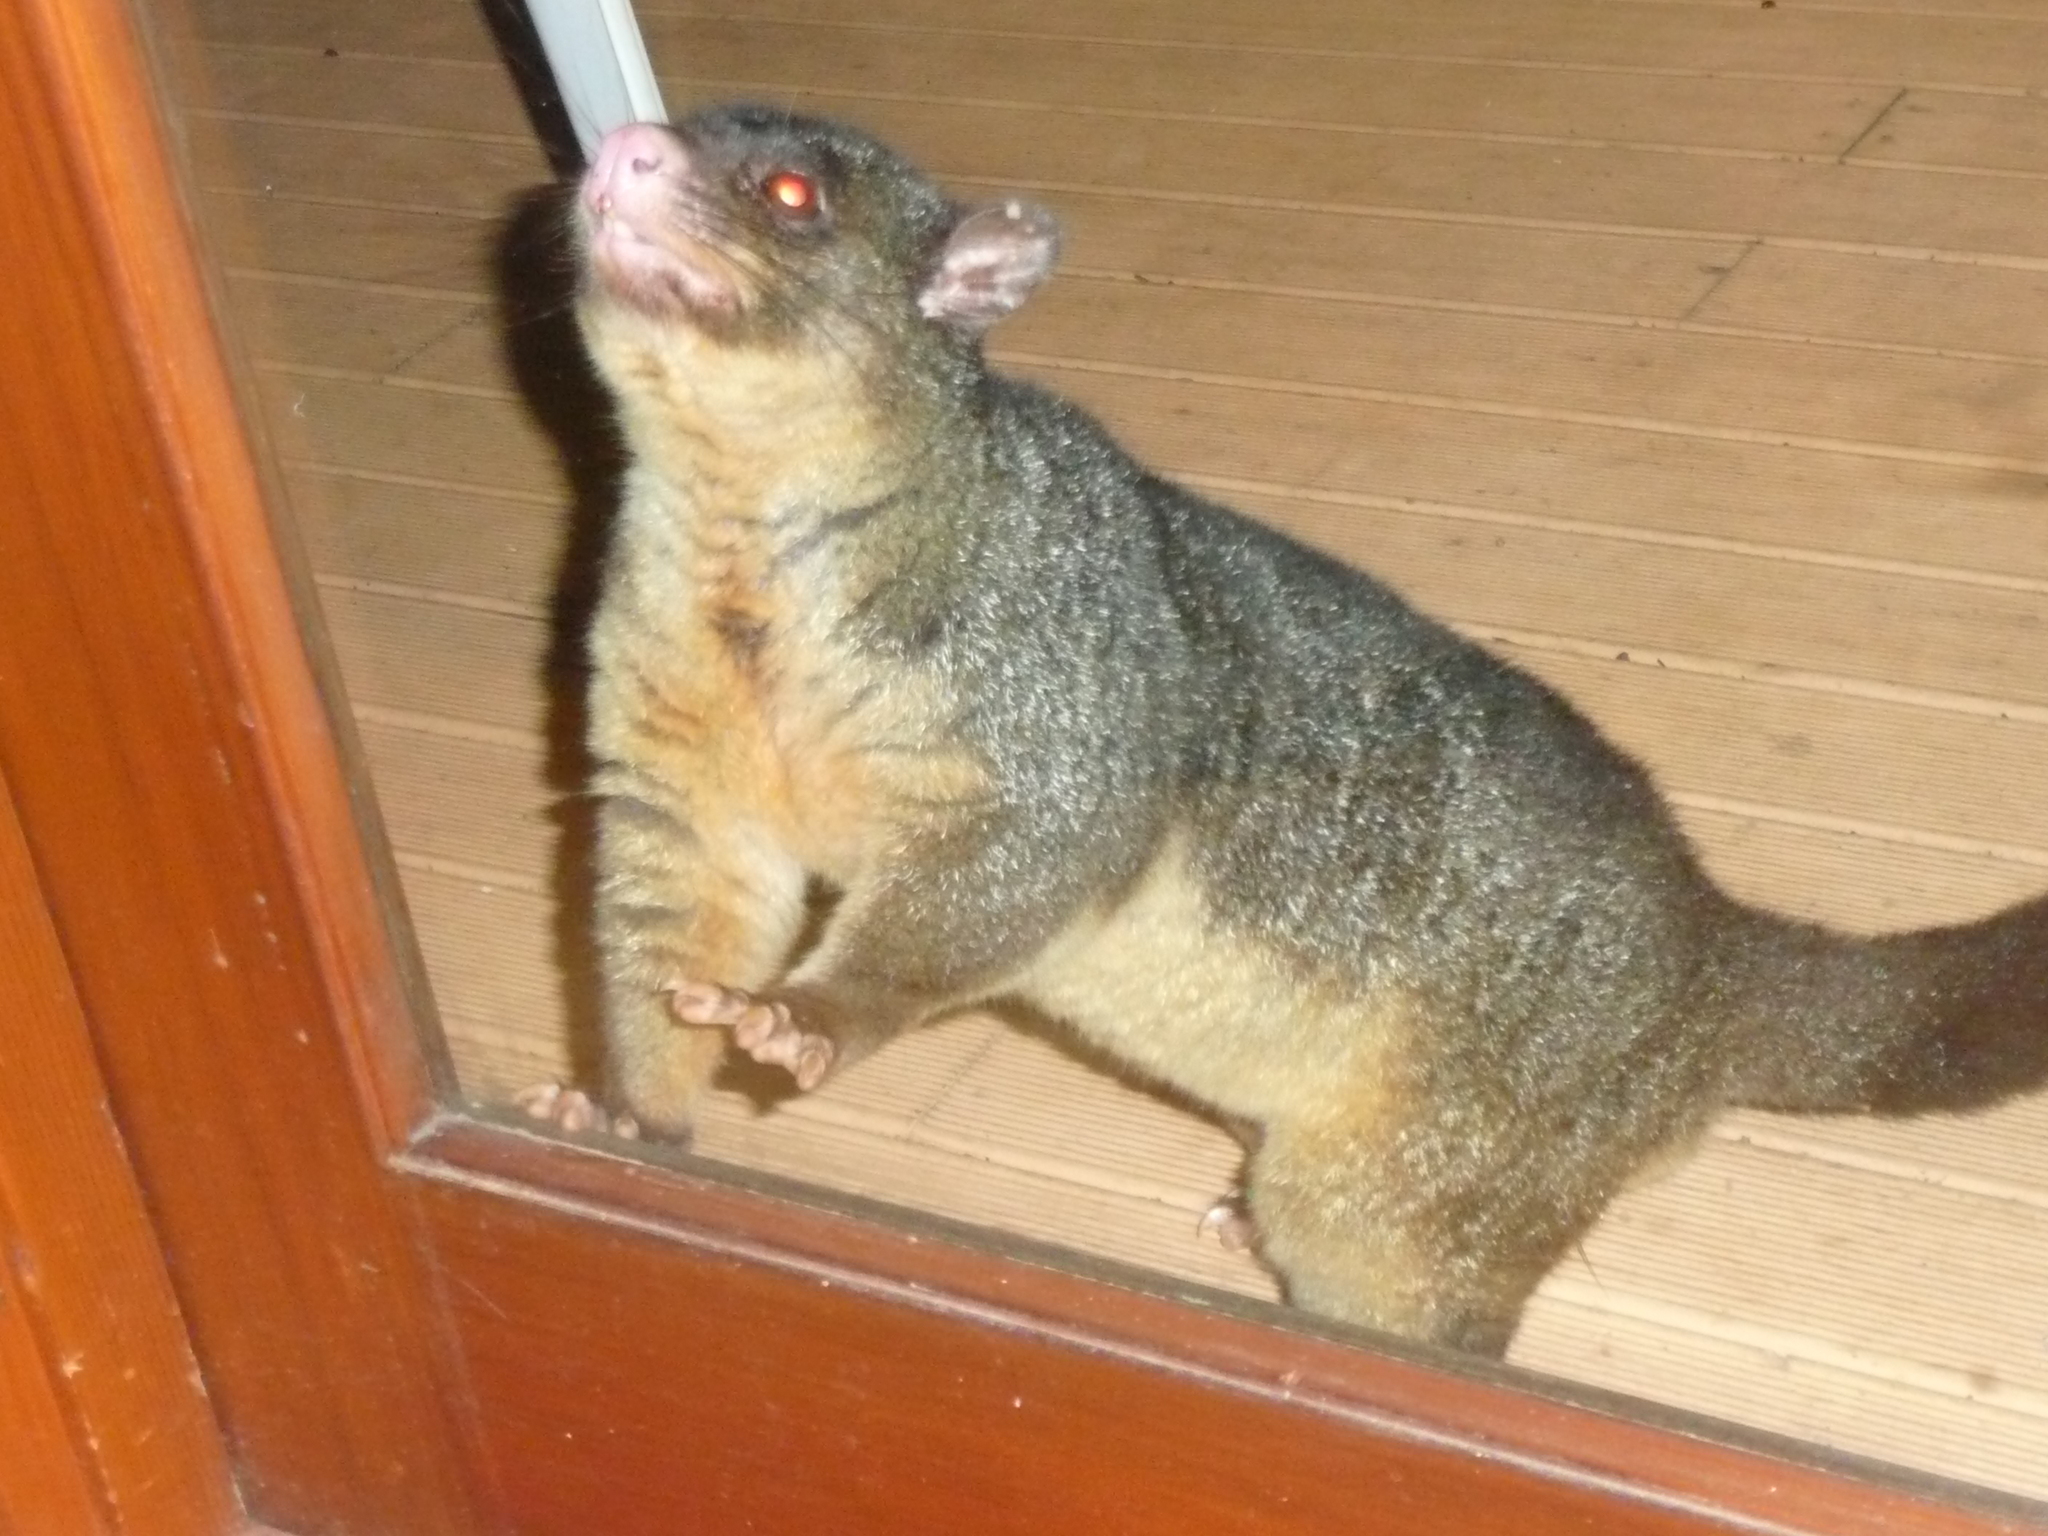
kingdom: Animalia
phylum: Chordata
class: Mammalia
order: Diprotodontia
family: Phalangeridae
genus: Trichosurus
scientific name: Trichosurus caninus
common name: Short-eared possum
